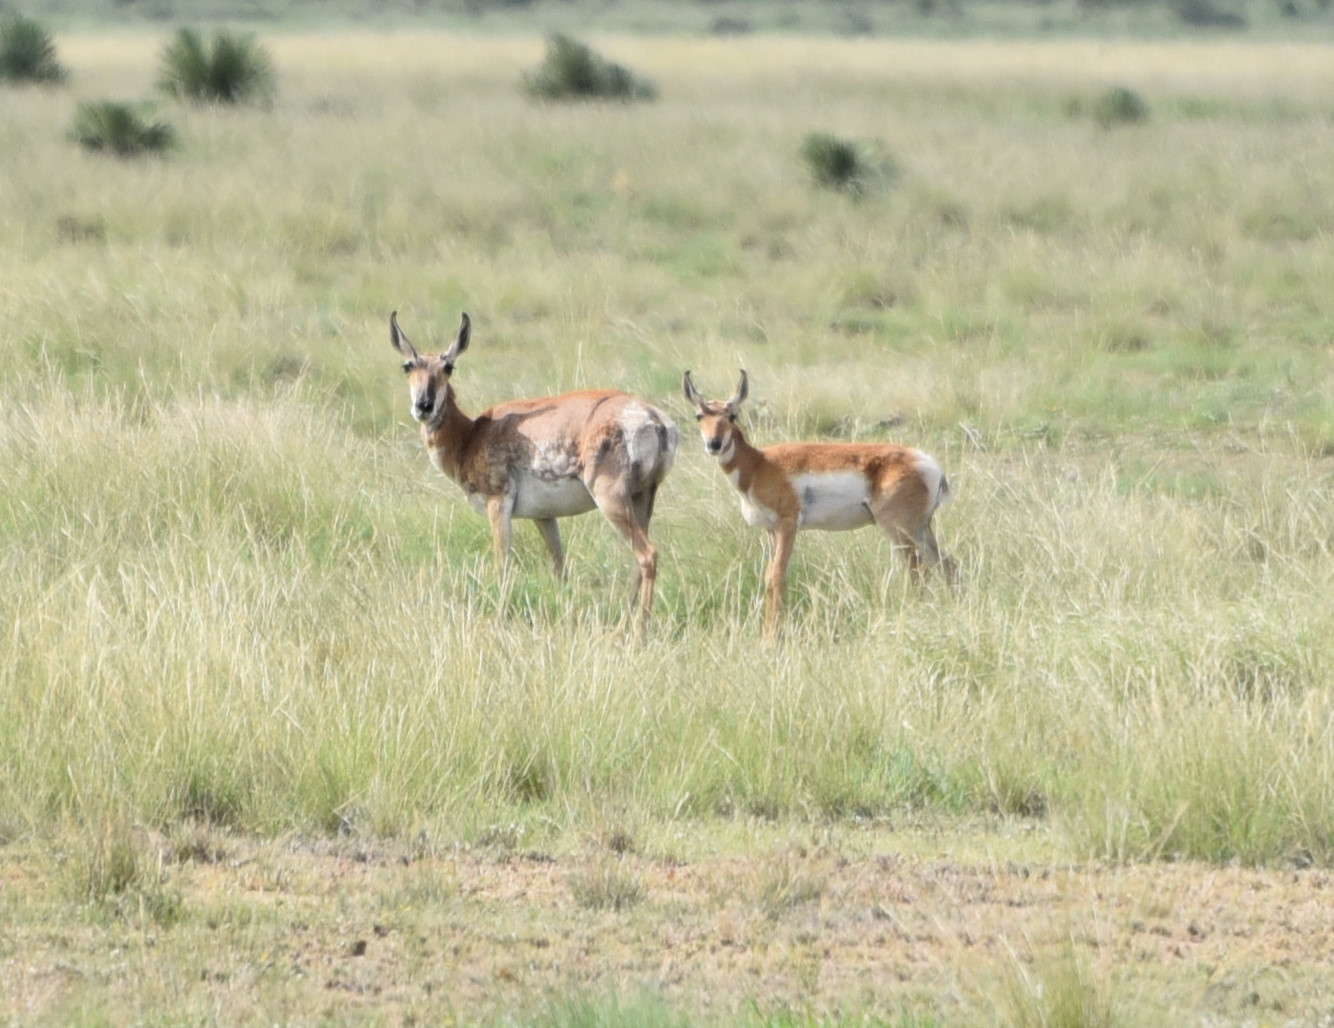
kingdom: Animalia
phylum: Chordata
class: Mammalia
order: Artiodactyla
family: Antilocapridae
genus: Antilocapra
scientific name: Antilocapra americana
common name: Pronghorn
